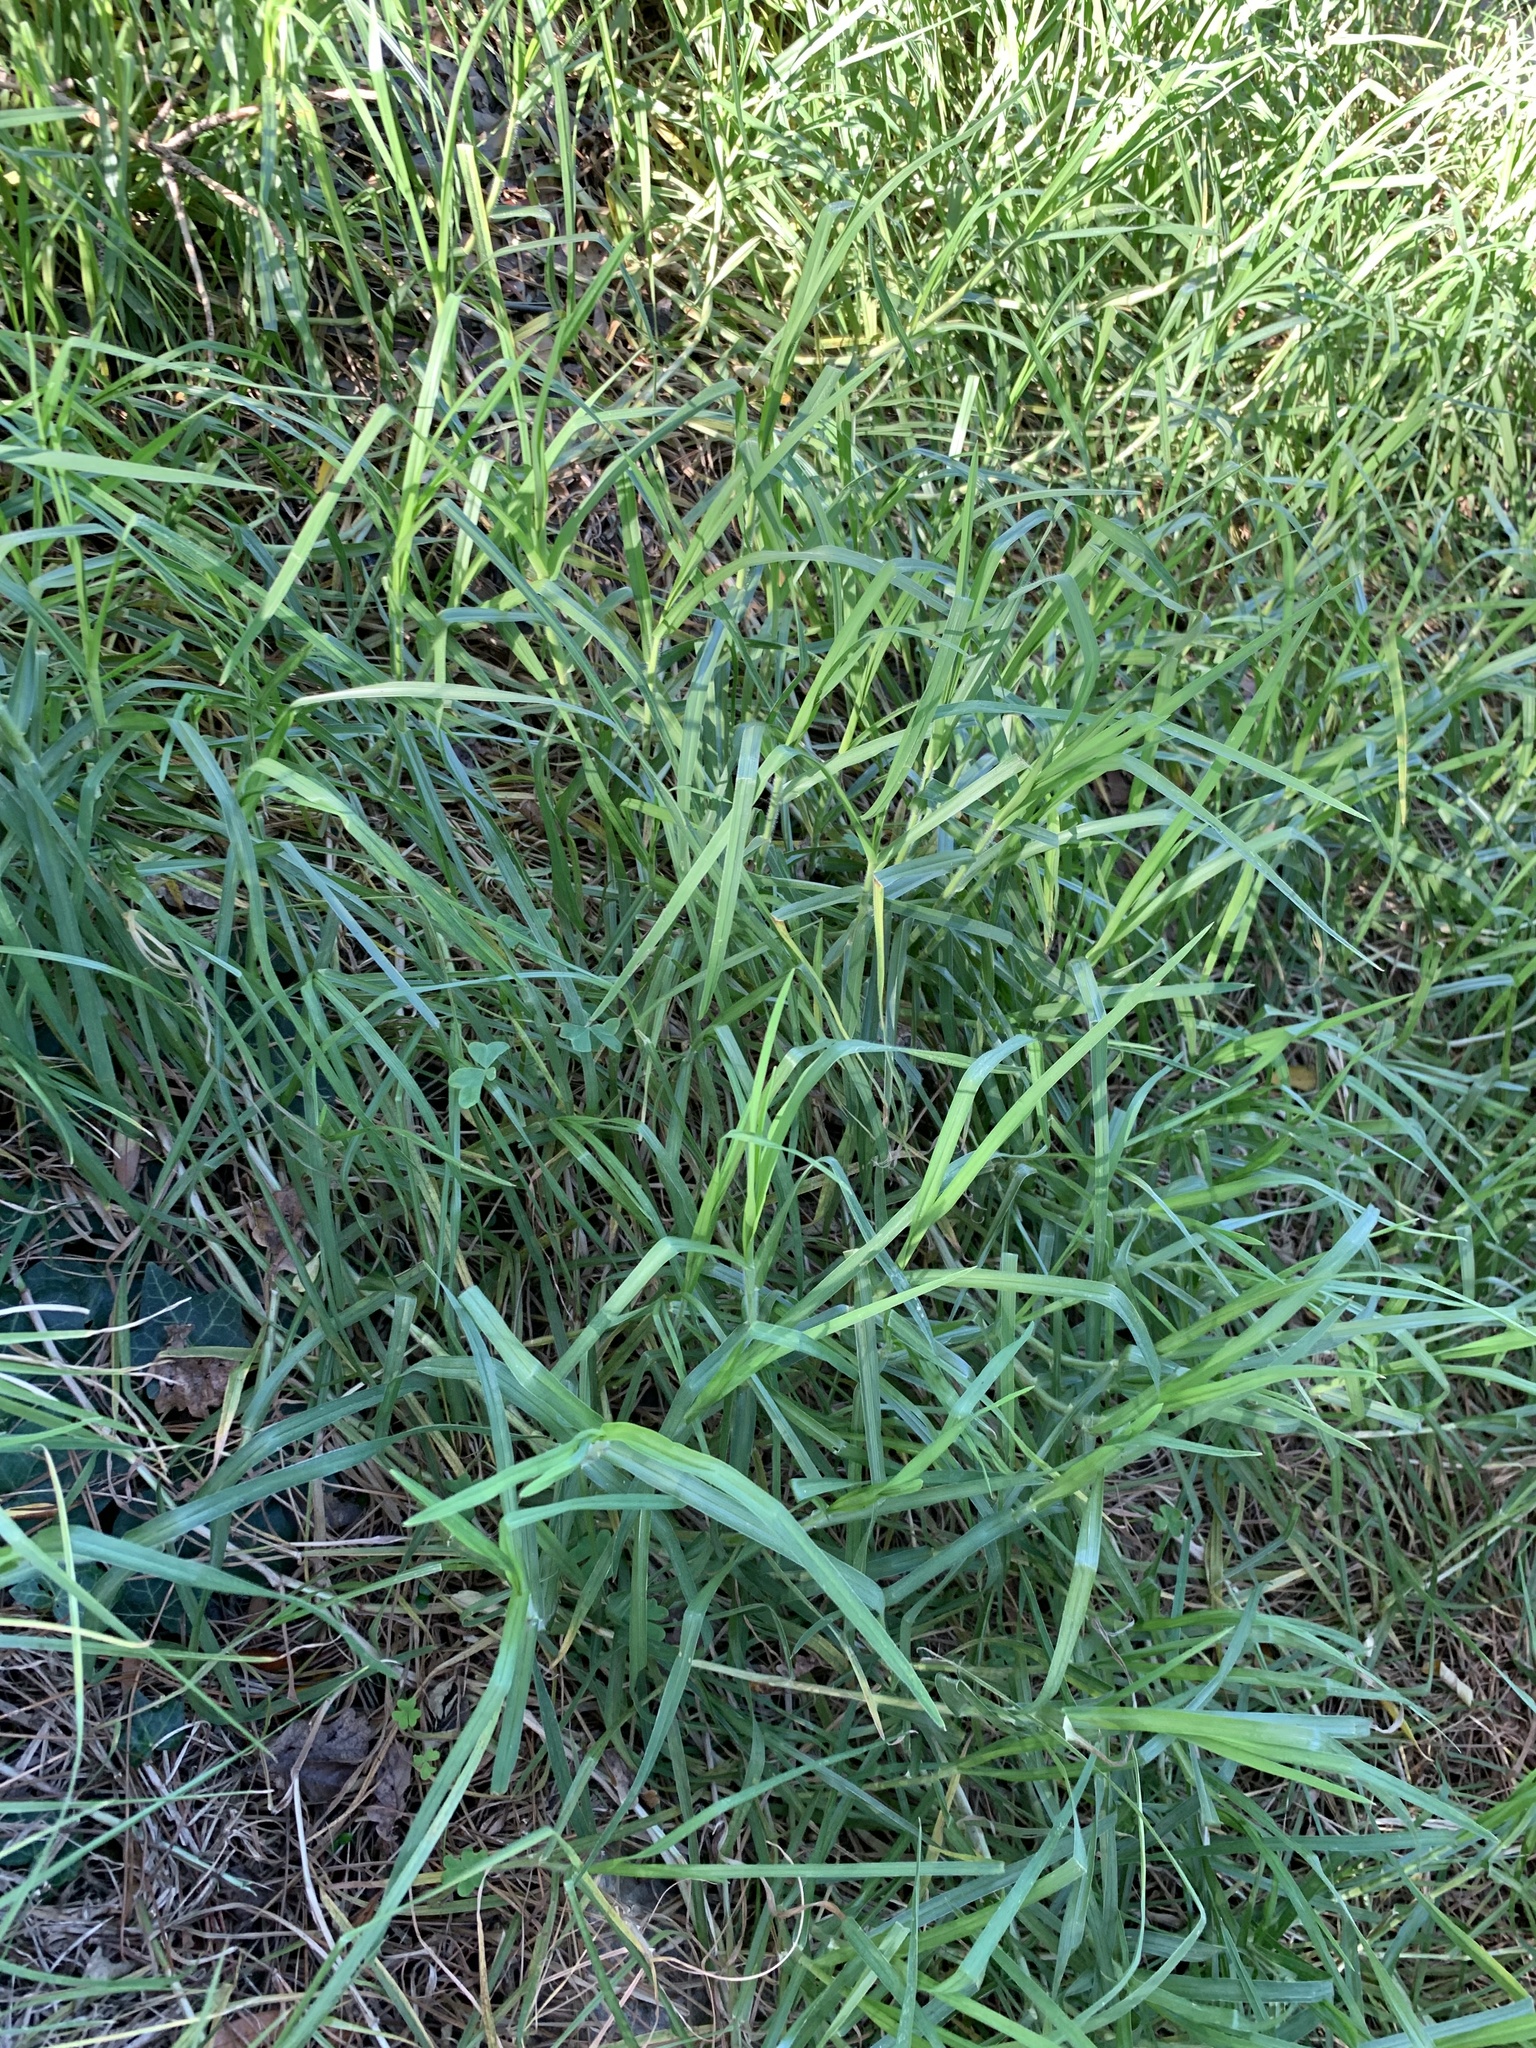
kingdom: Plantae
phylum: Tracheophyta
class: Liliopsida
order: Poales
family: Poaceae
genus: Cenchrus
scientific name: Cenchrus clandestinus
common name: Kikuyugrass
